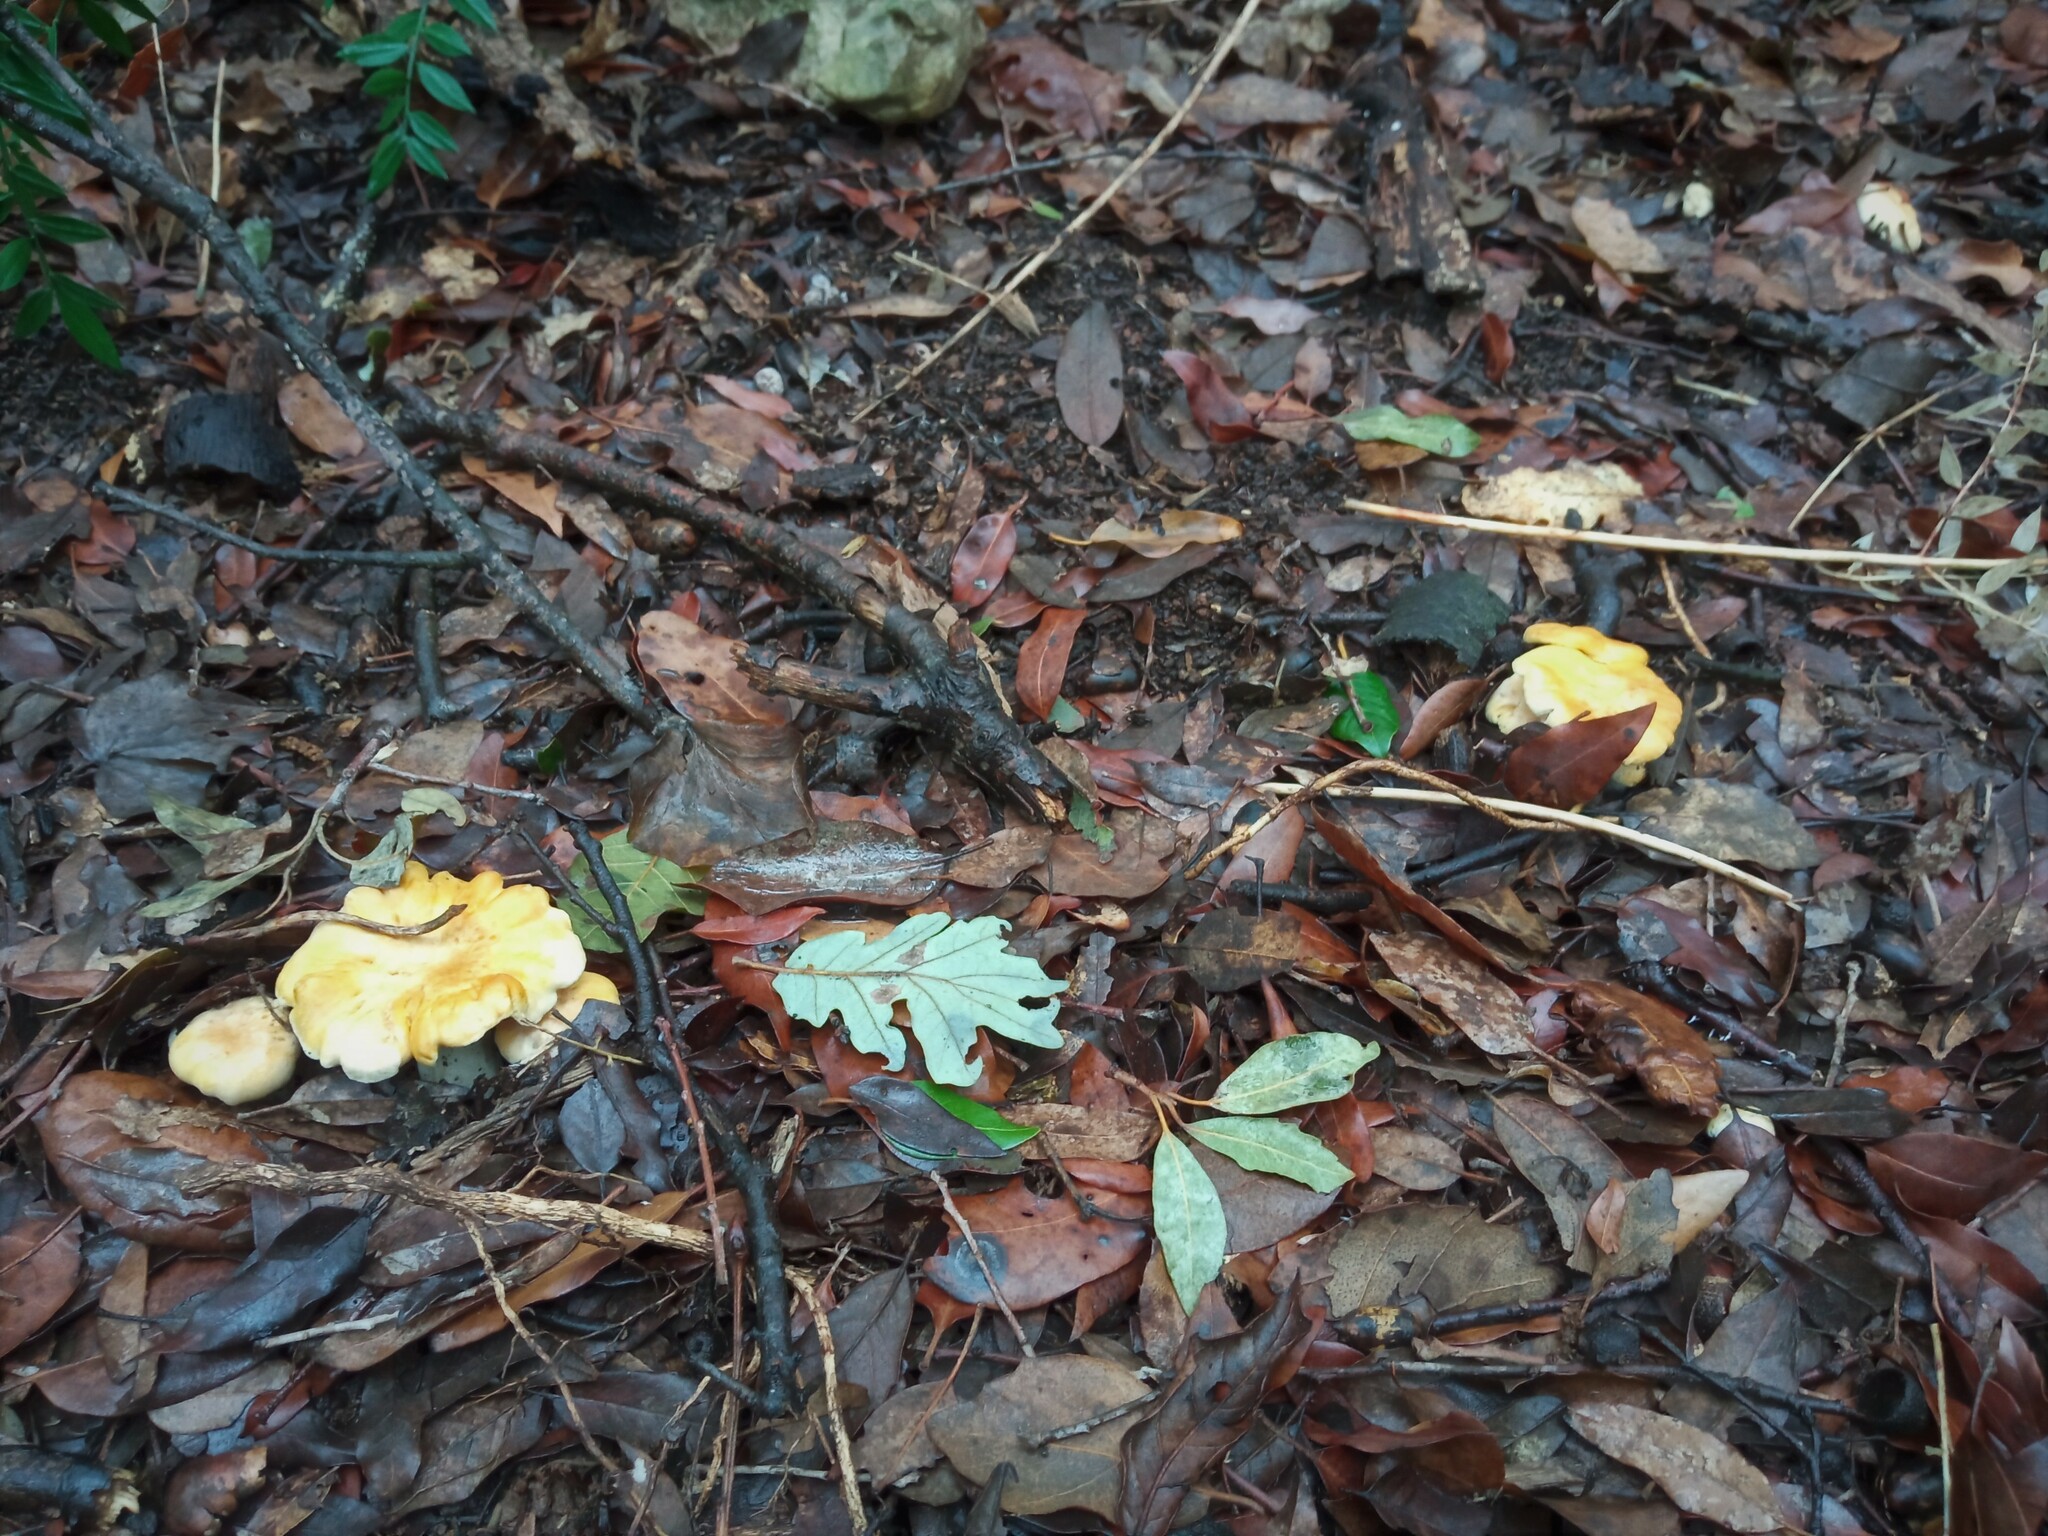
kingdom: Fungi
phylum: Basidiomycota
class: Agaricomycetes
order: Cantharellales
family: Hydnaceae
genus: Cantharellus
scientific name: Cantharellus cibarius
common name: Chanterelle
